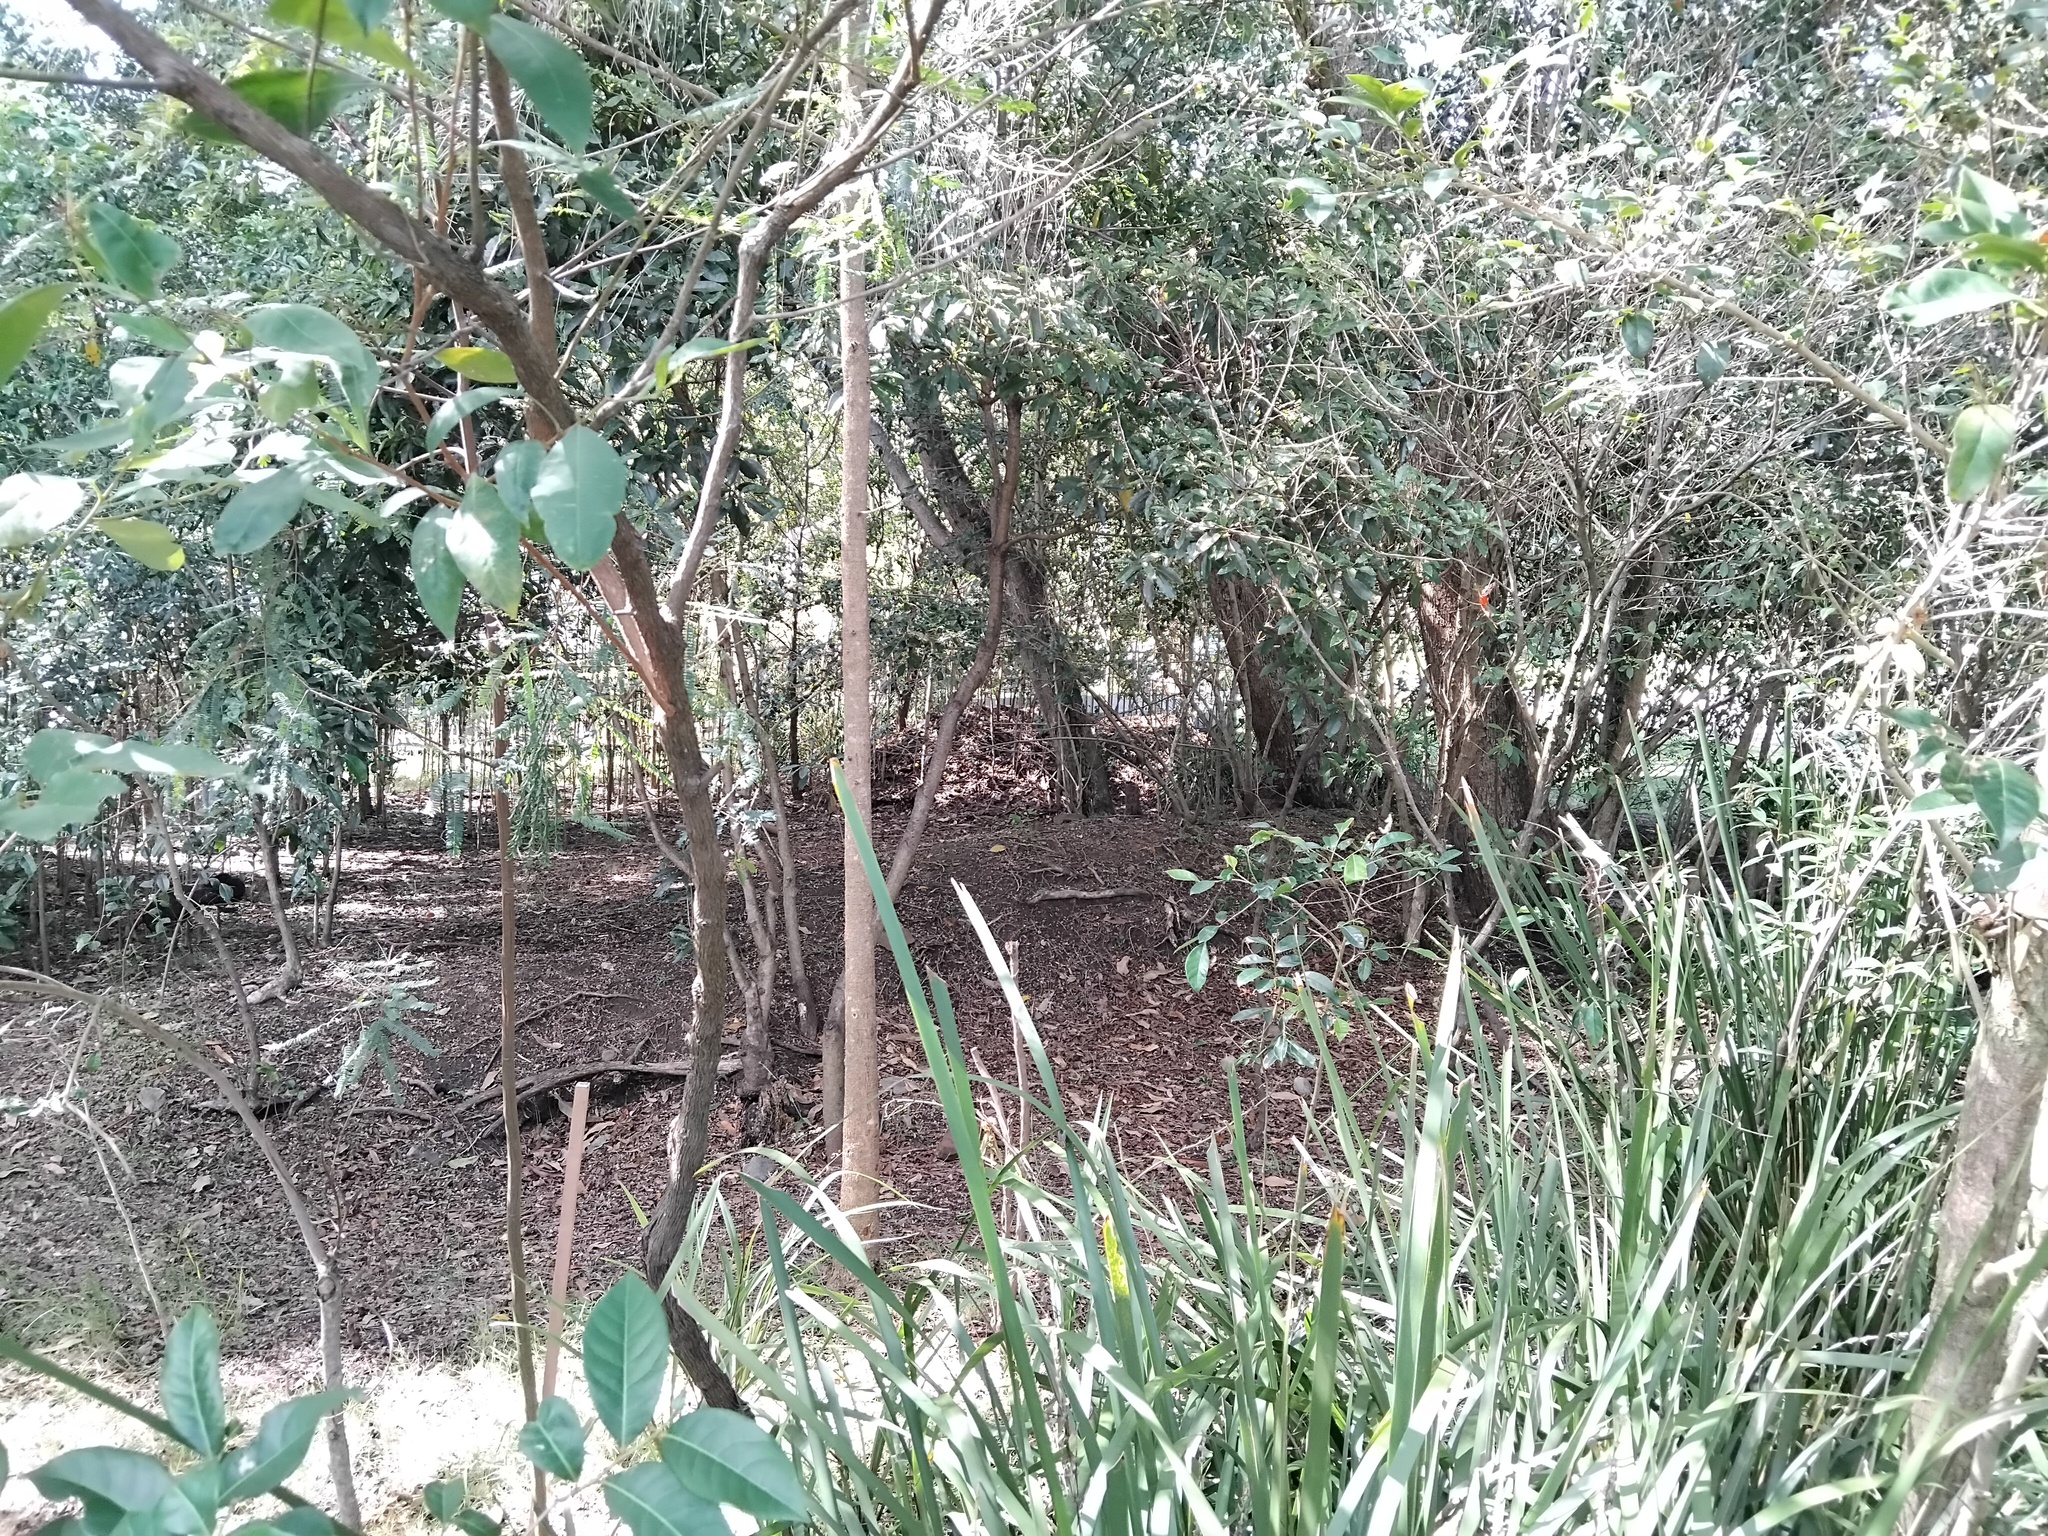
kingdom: Animalia
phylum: Chordata
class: Aves
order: Galliformes
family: Megapodiidae
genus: Alectura
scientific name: Alectura lathami
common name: Australian brushturkey
